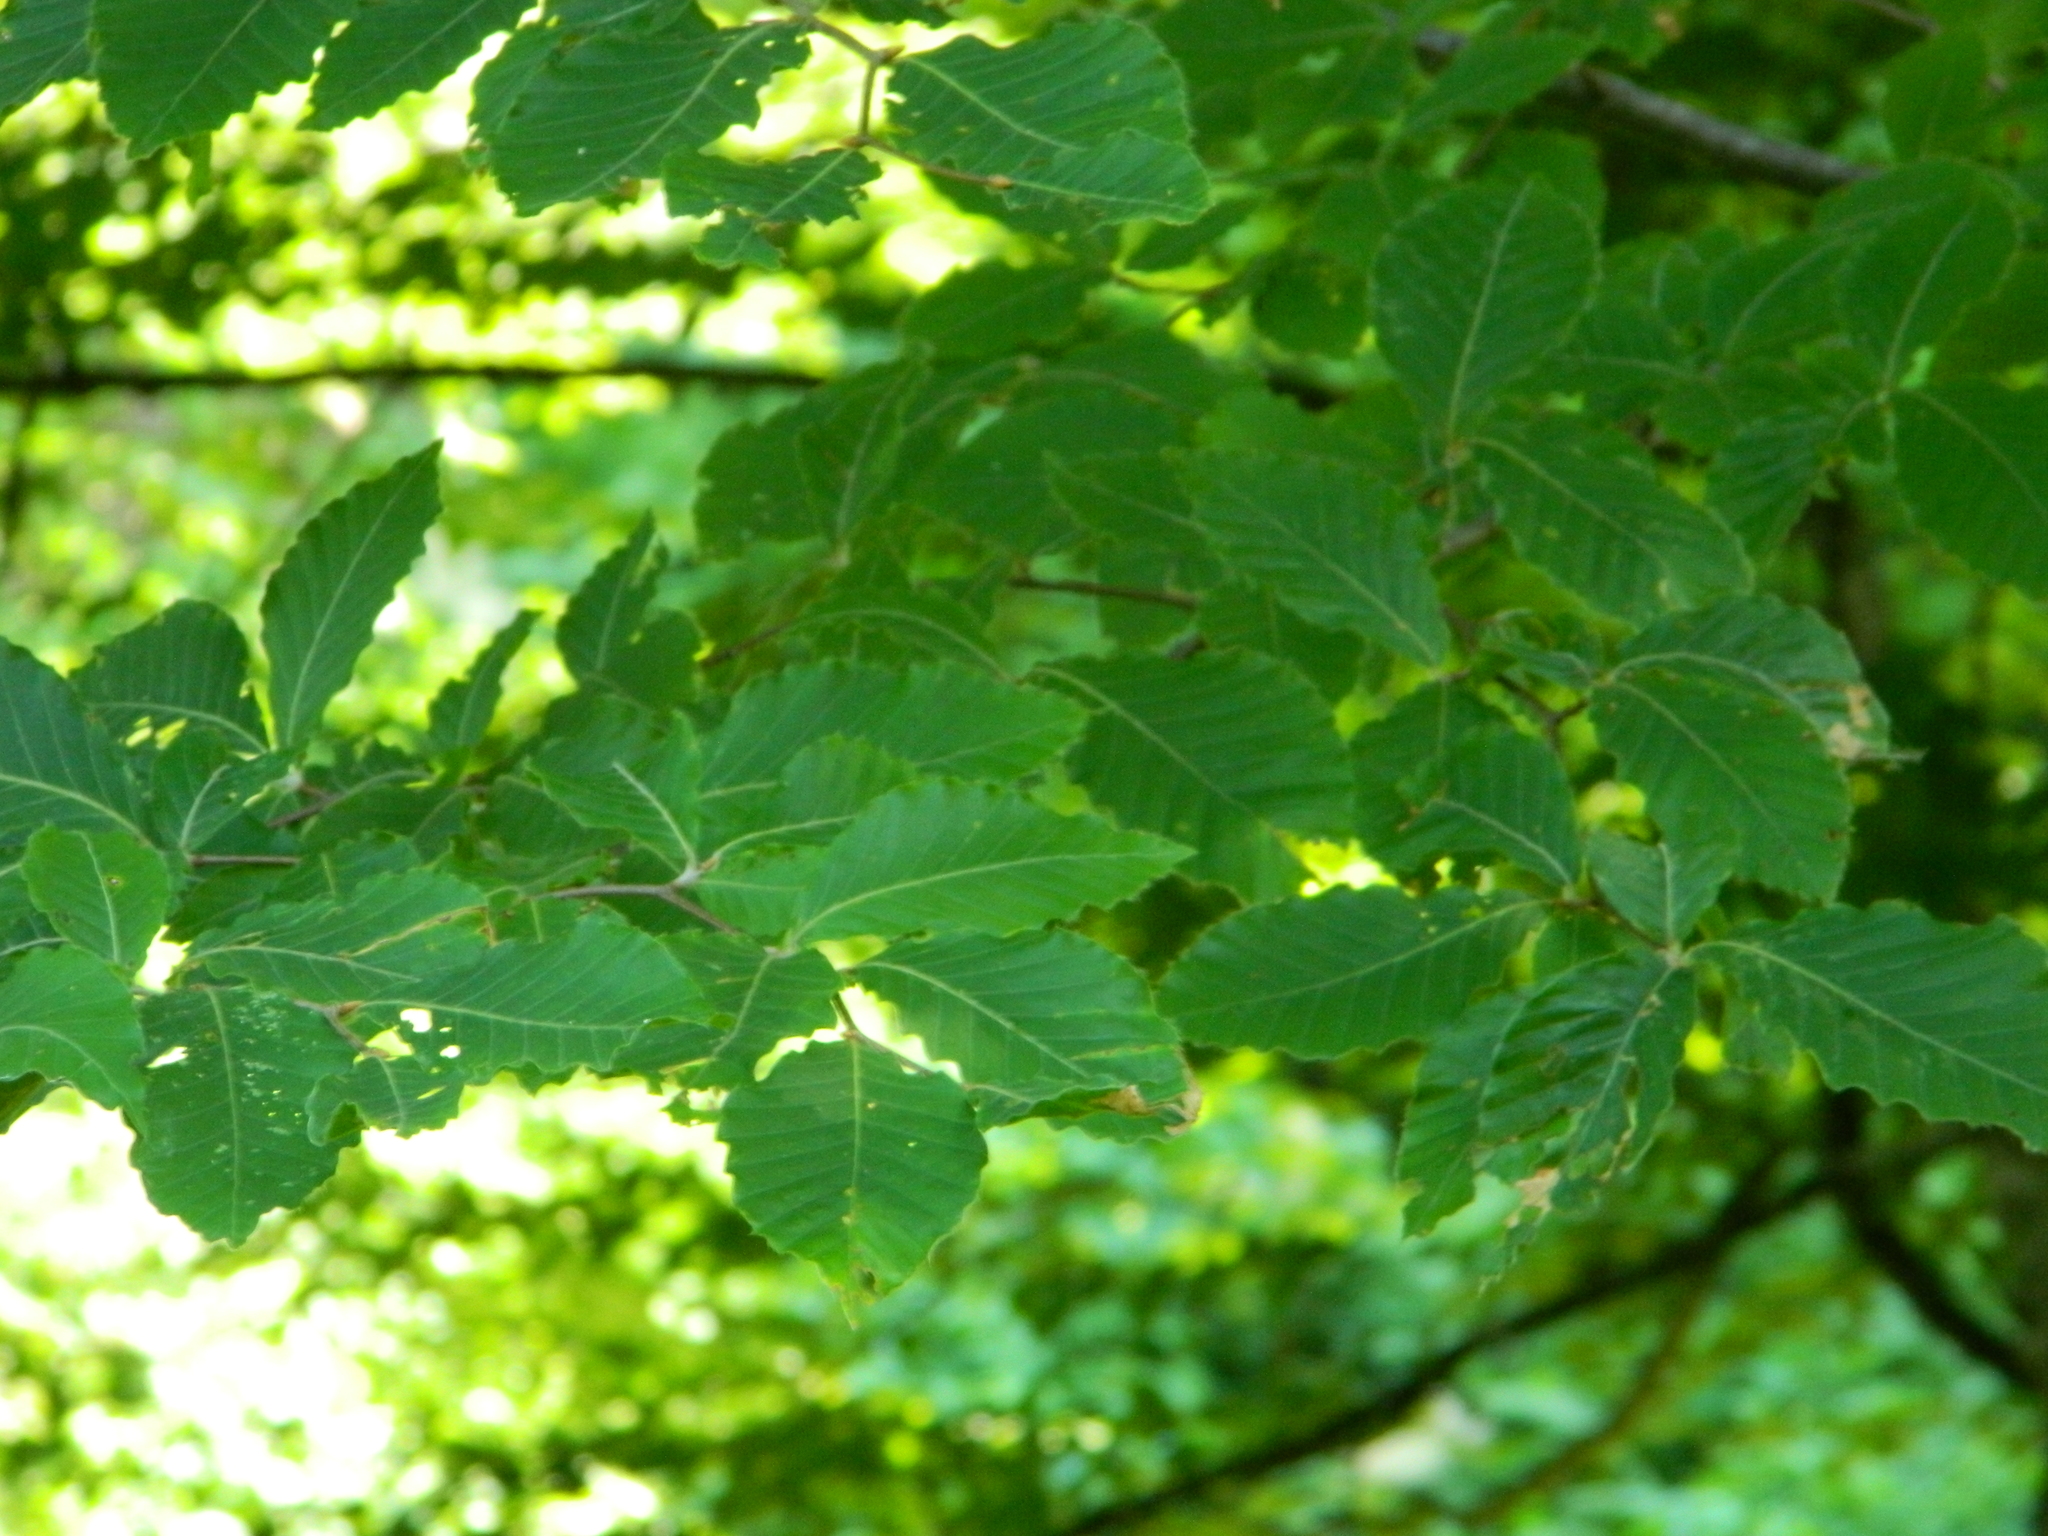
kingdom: Plantae
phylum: Tracheophyta
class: Magnoliopsida
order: Fagales
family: Fagaceae
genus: Fagus
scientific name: Fagus orientalis
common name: Oriental beech
